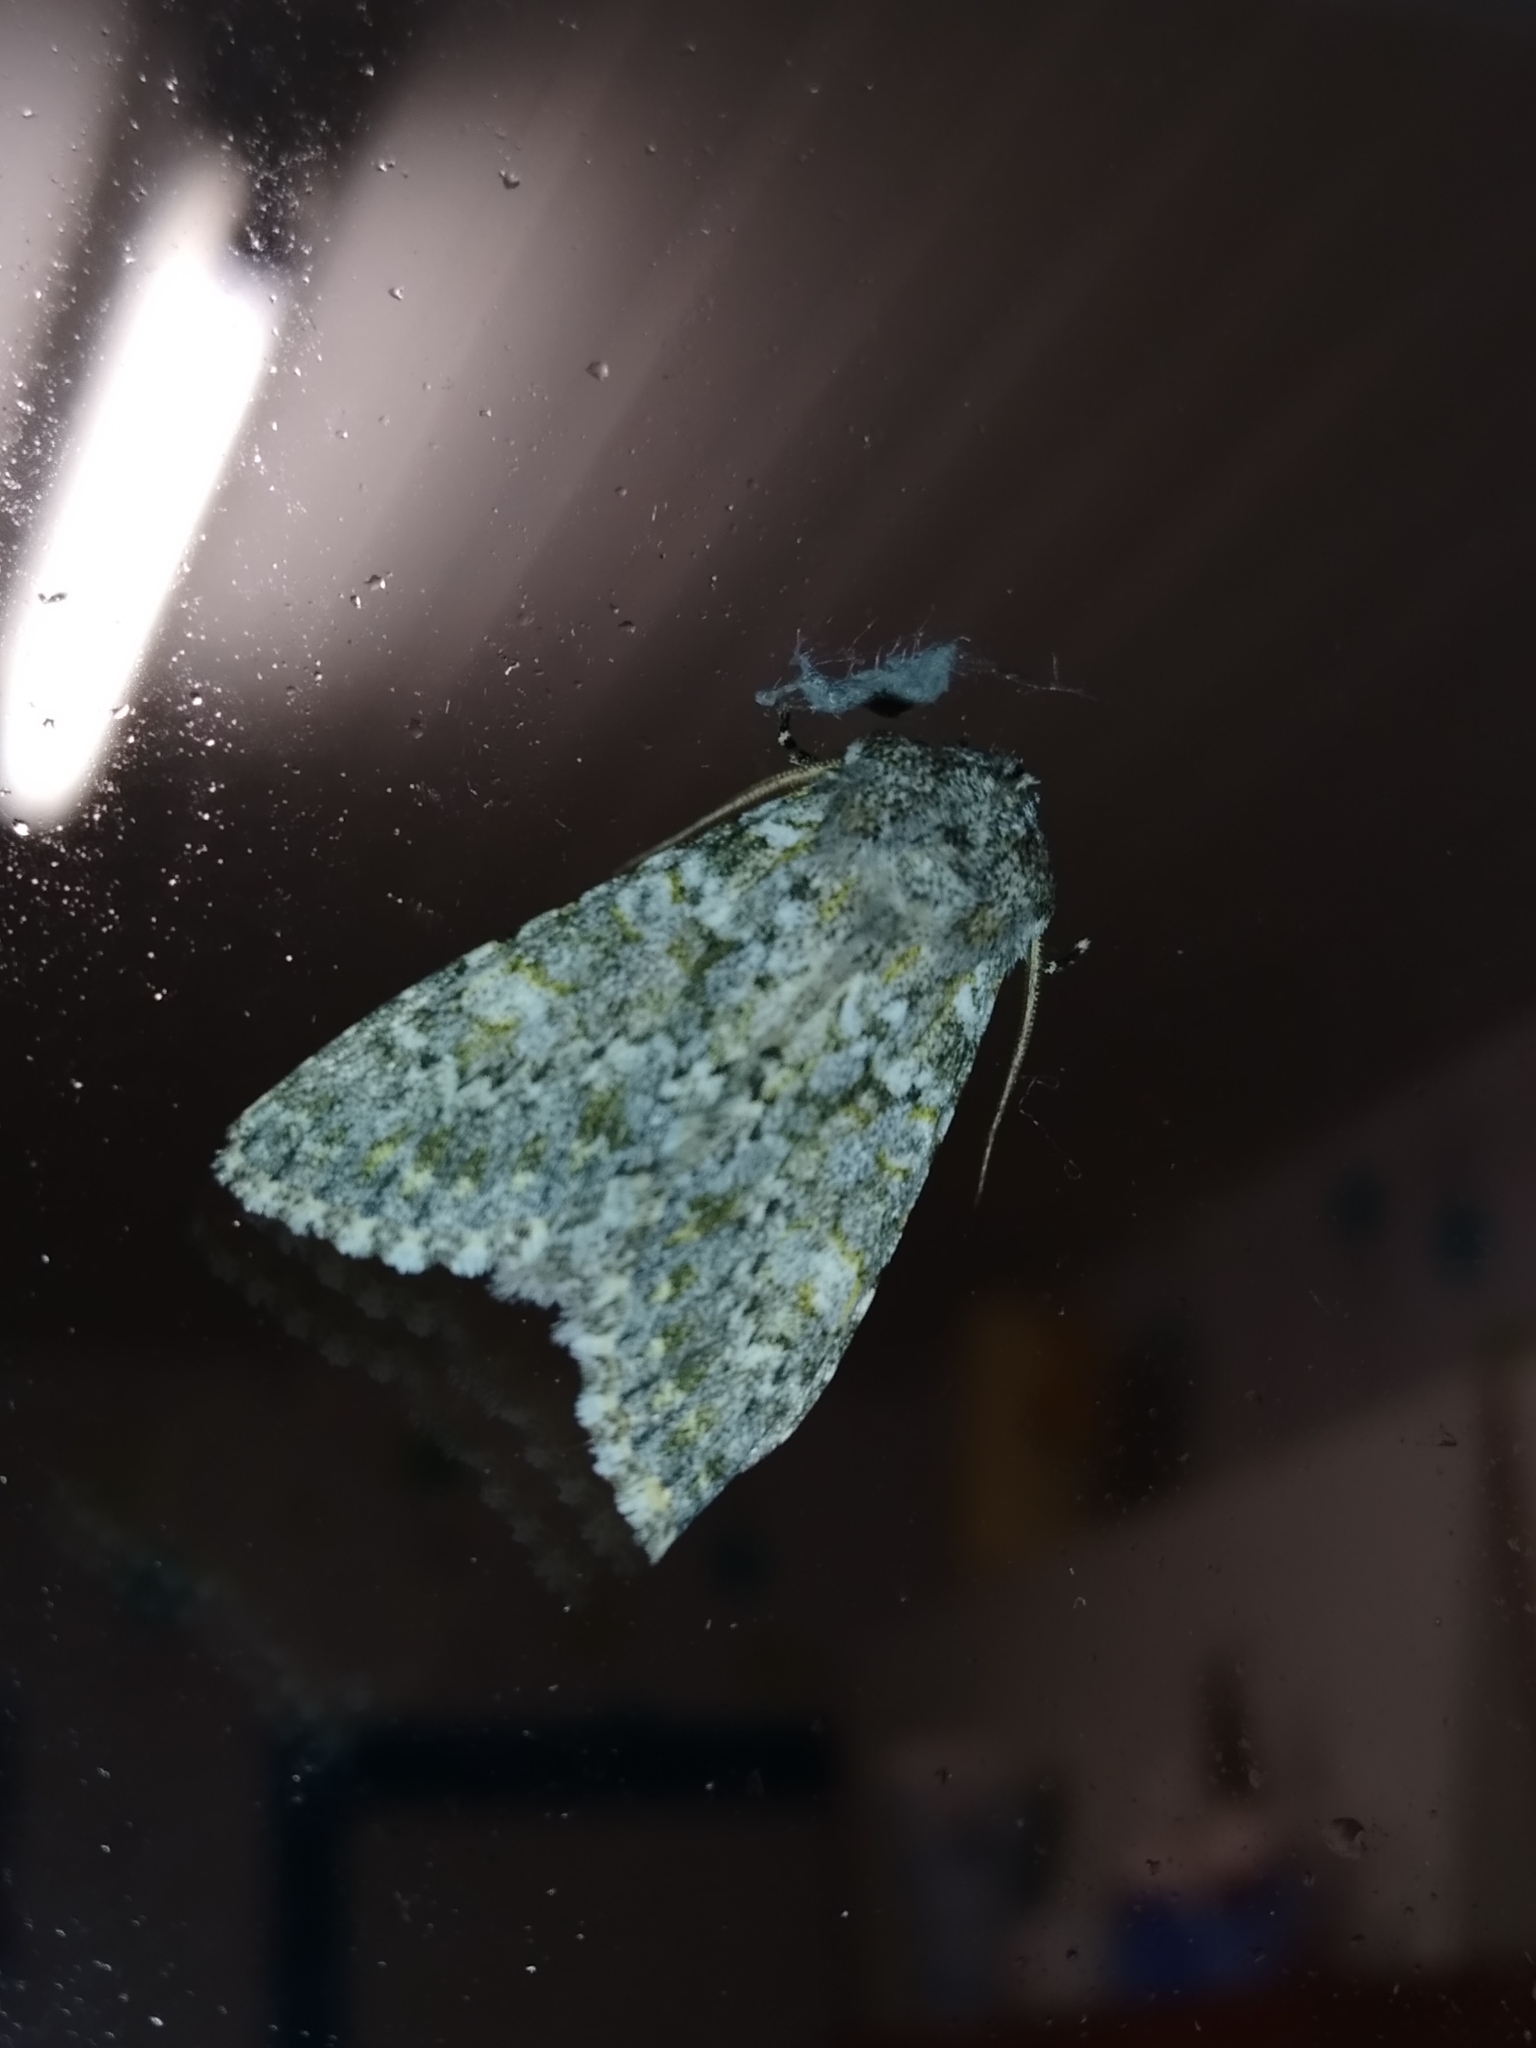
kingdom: Animalia
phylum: Arthropoda
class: Insecta
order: Lepidoptera
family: Noctuidae
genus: Polymixis
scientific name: Polymixis flavicincta
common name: Large ranunculus
